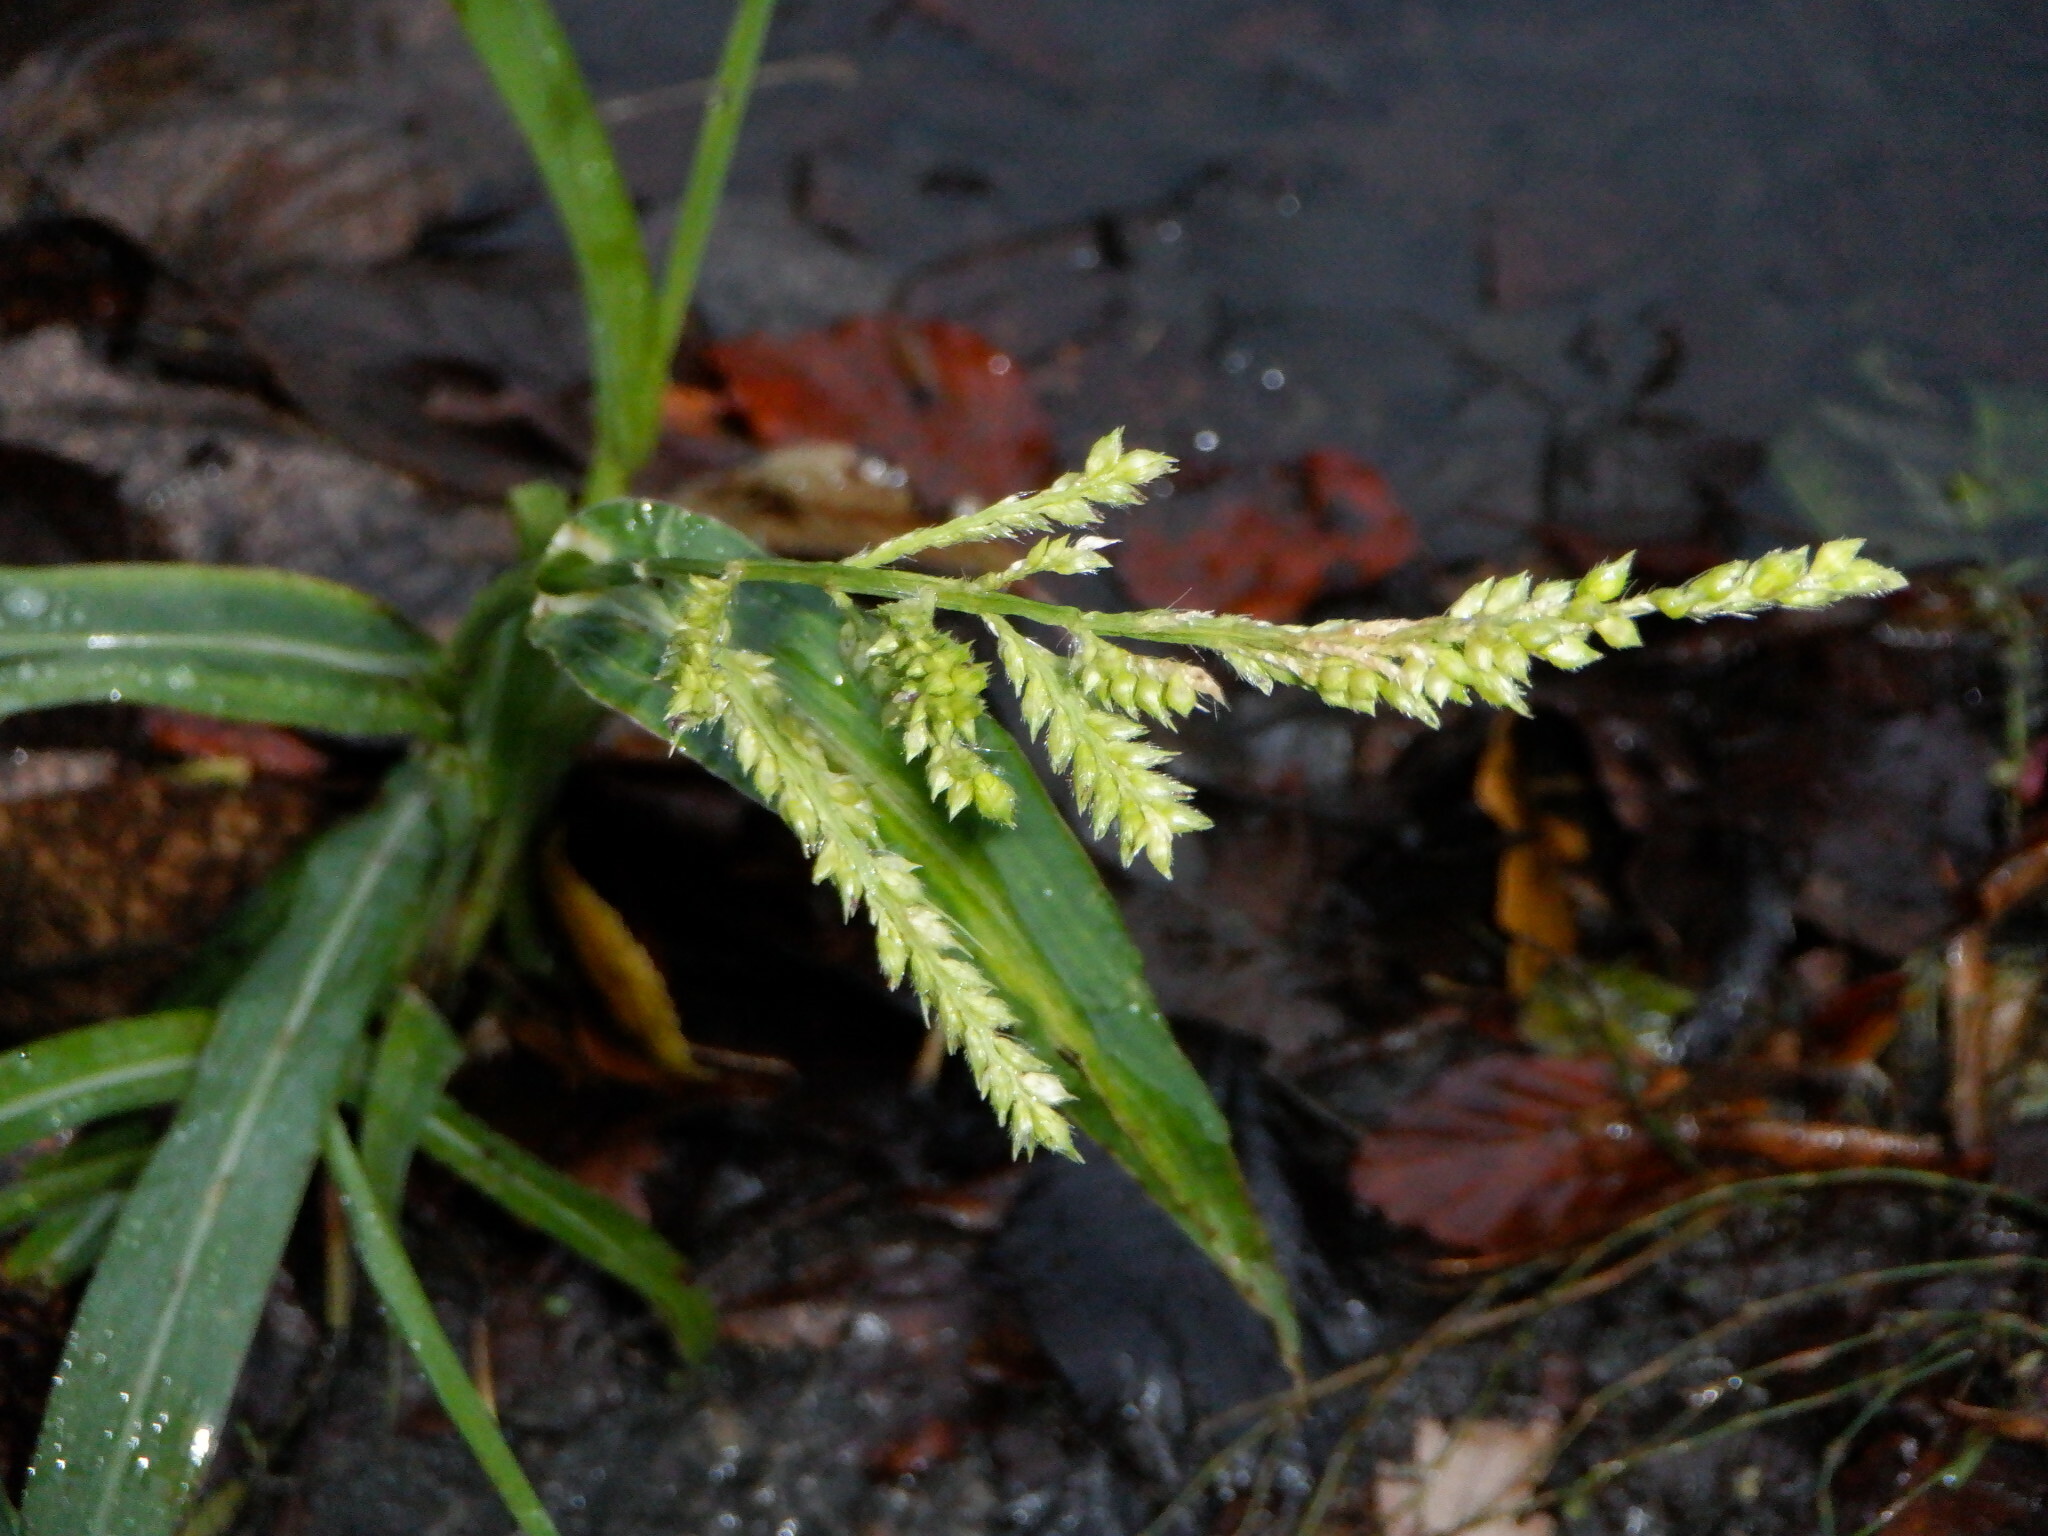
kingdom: Plantae
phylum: Tracheophyta
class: Liliopsida
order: Poales
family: Poaceae
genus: Echinochloa
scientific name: Echinochloa crus-galli
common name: Cockspur
